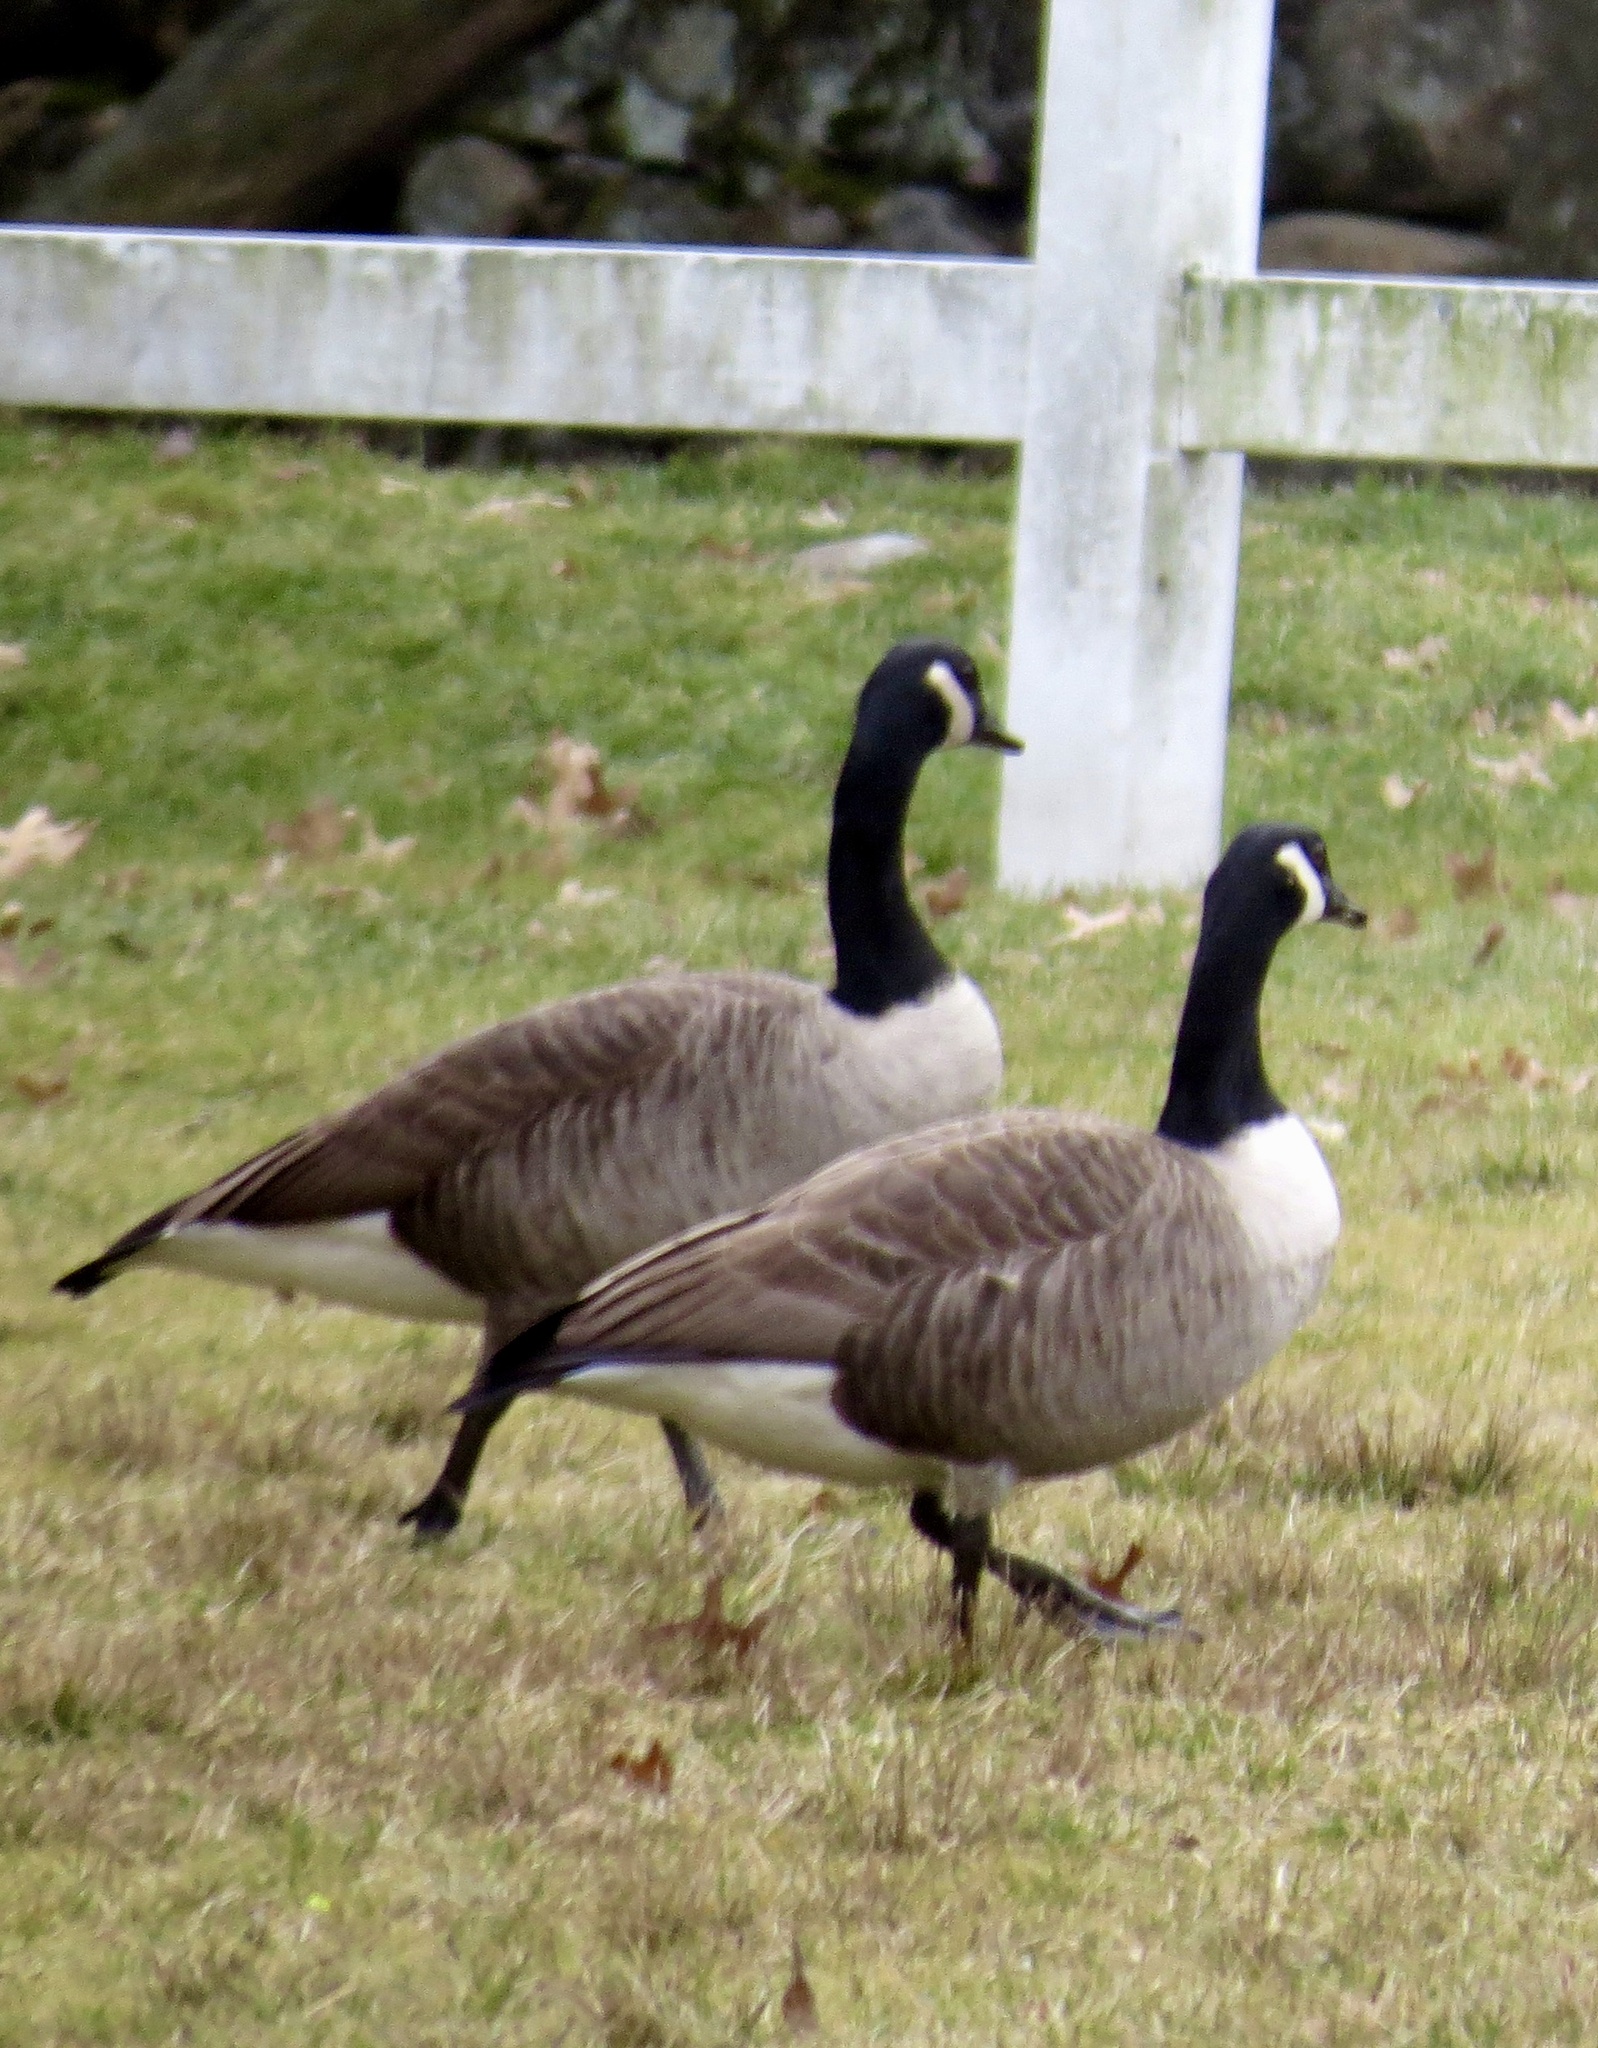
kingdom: Animalia
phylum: Chordata
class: Aves
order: Anseriformes
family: Anatidae
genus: Branta
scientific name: Branta canadensis
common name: Canada goose
